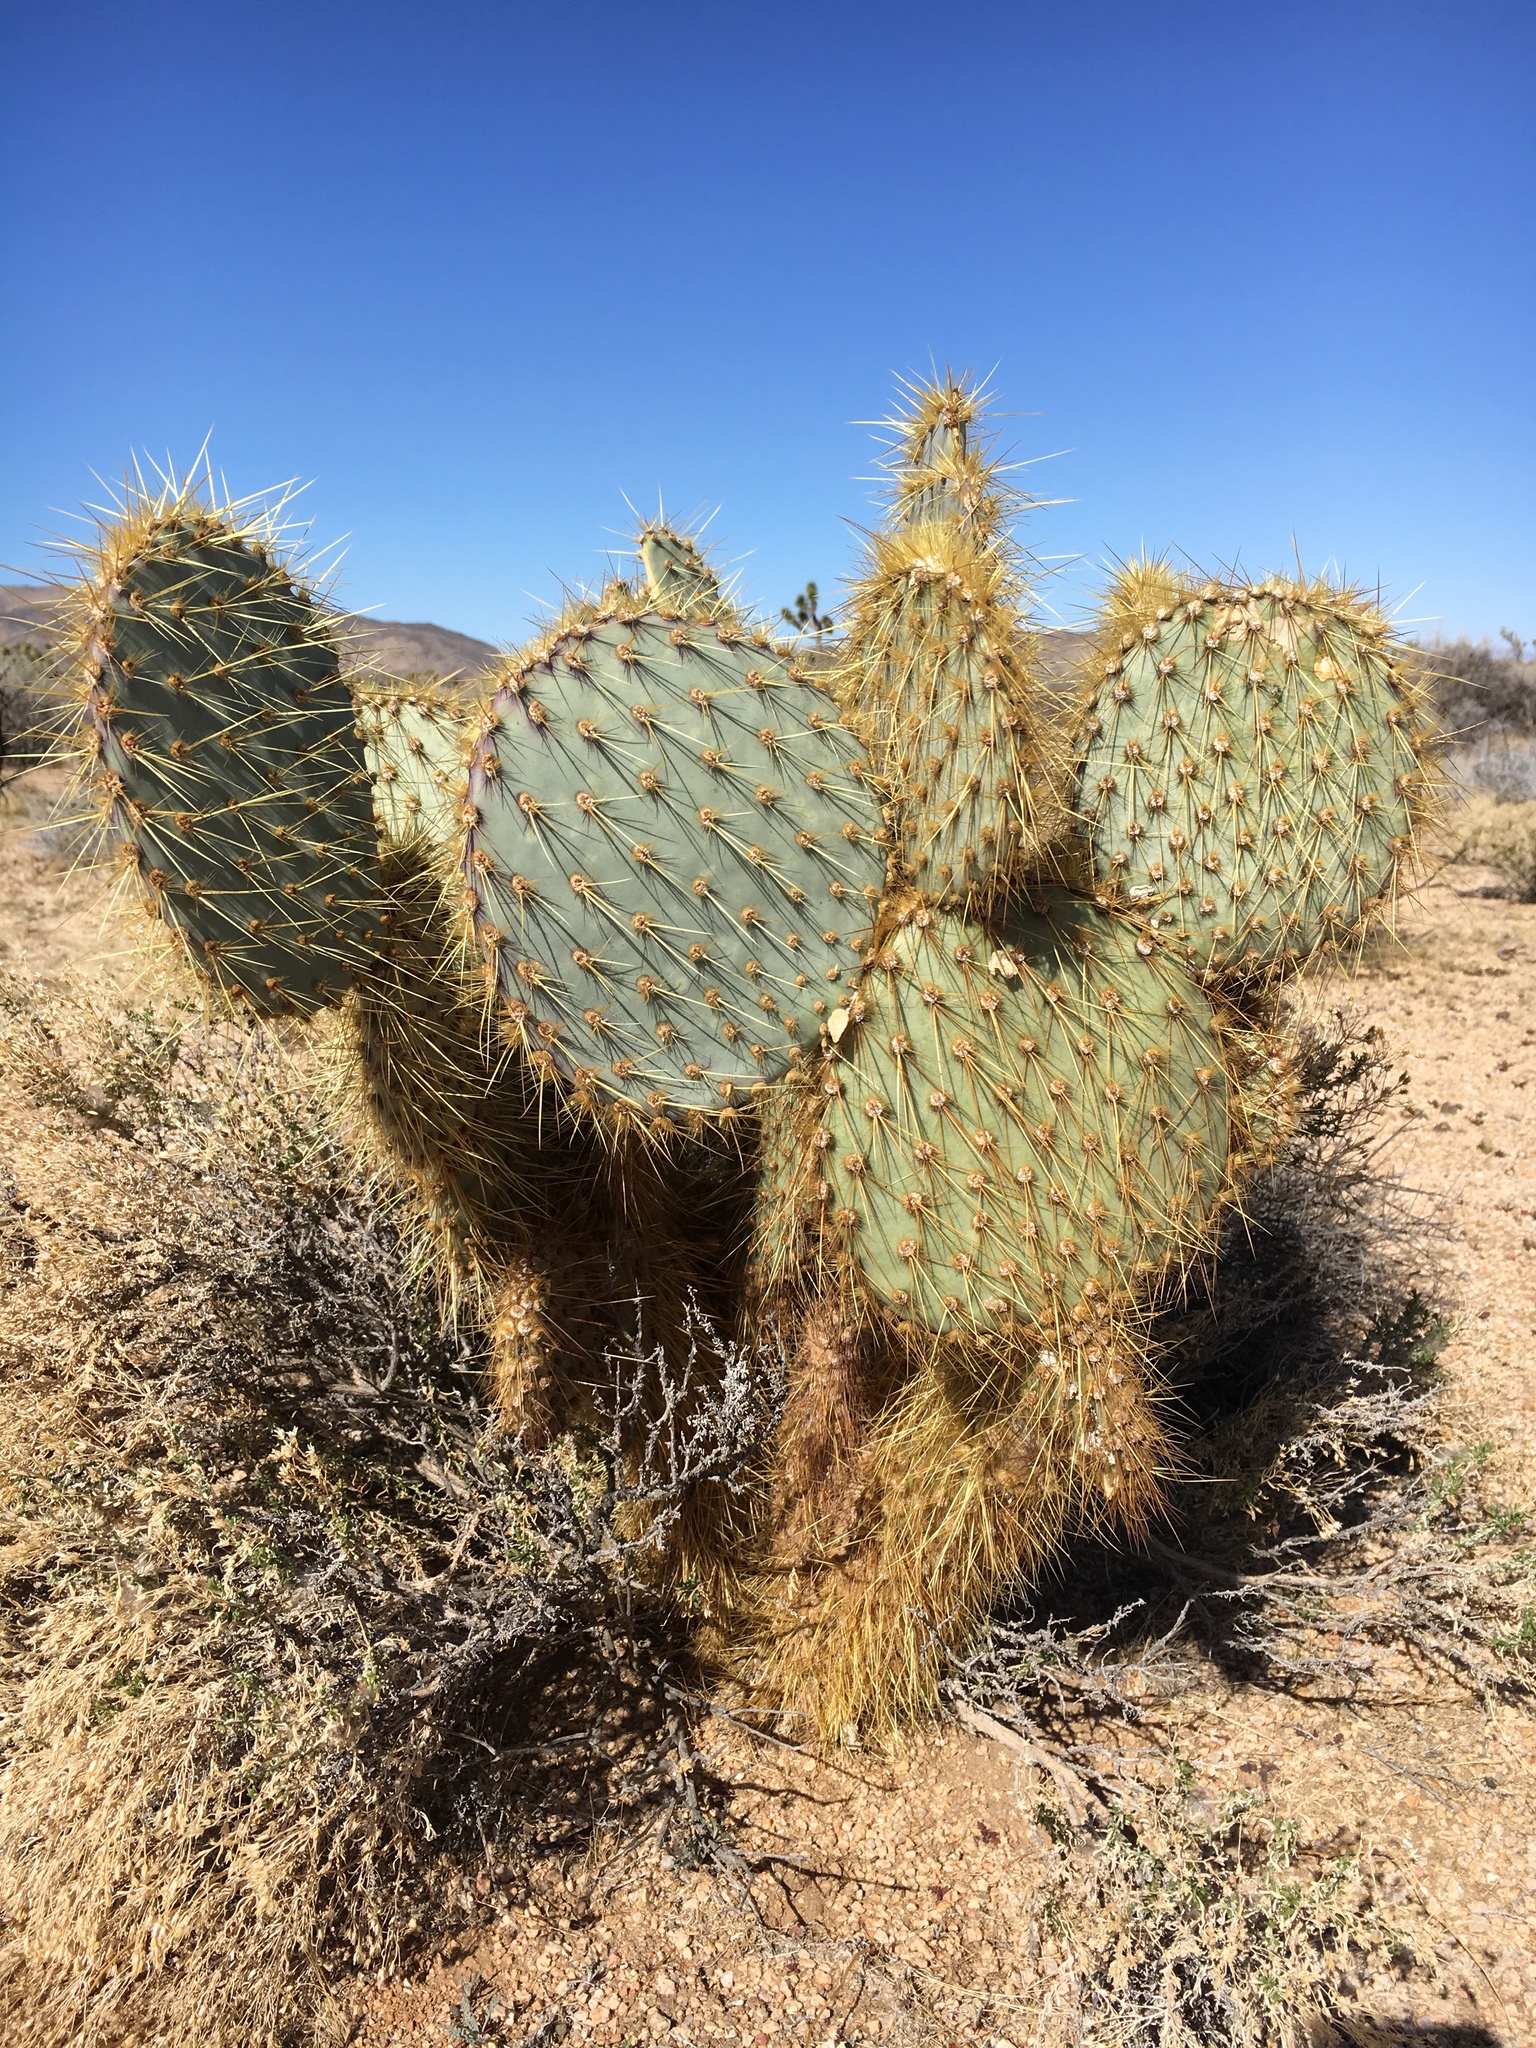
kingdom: Plantae
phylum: Tracheophyta
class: Magnoliopsida
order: Caryophyllales
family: Cactaceae
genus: Opuntia
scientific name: Opuntia chlorotica
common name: Dollar-joint prickly-pear
